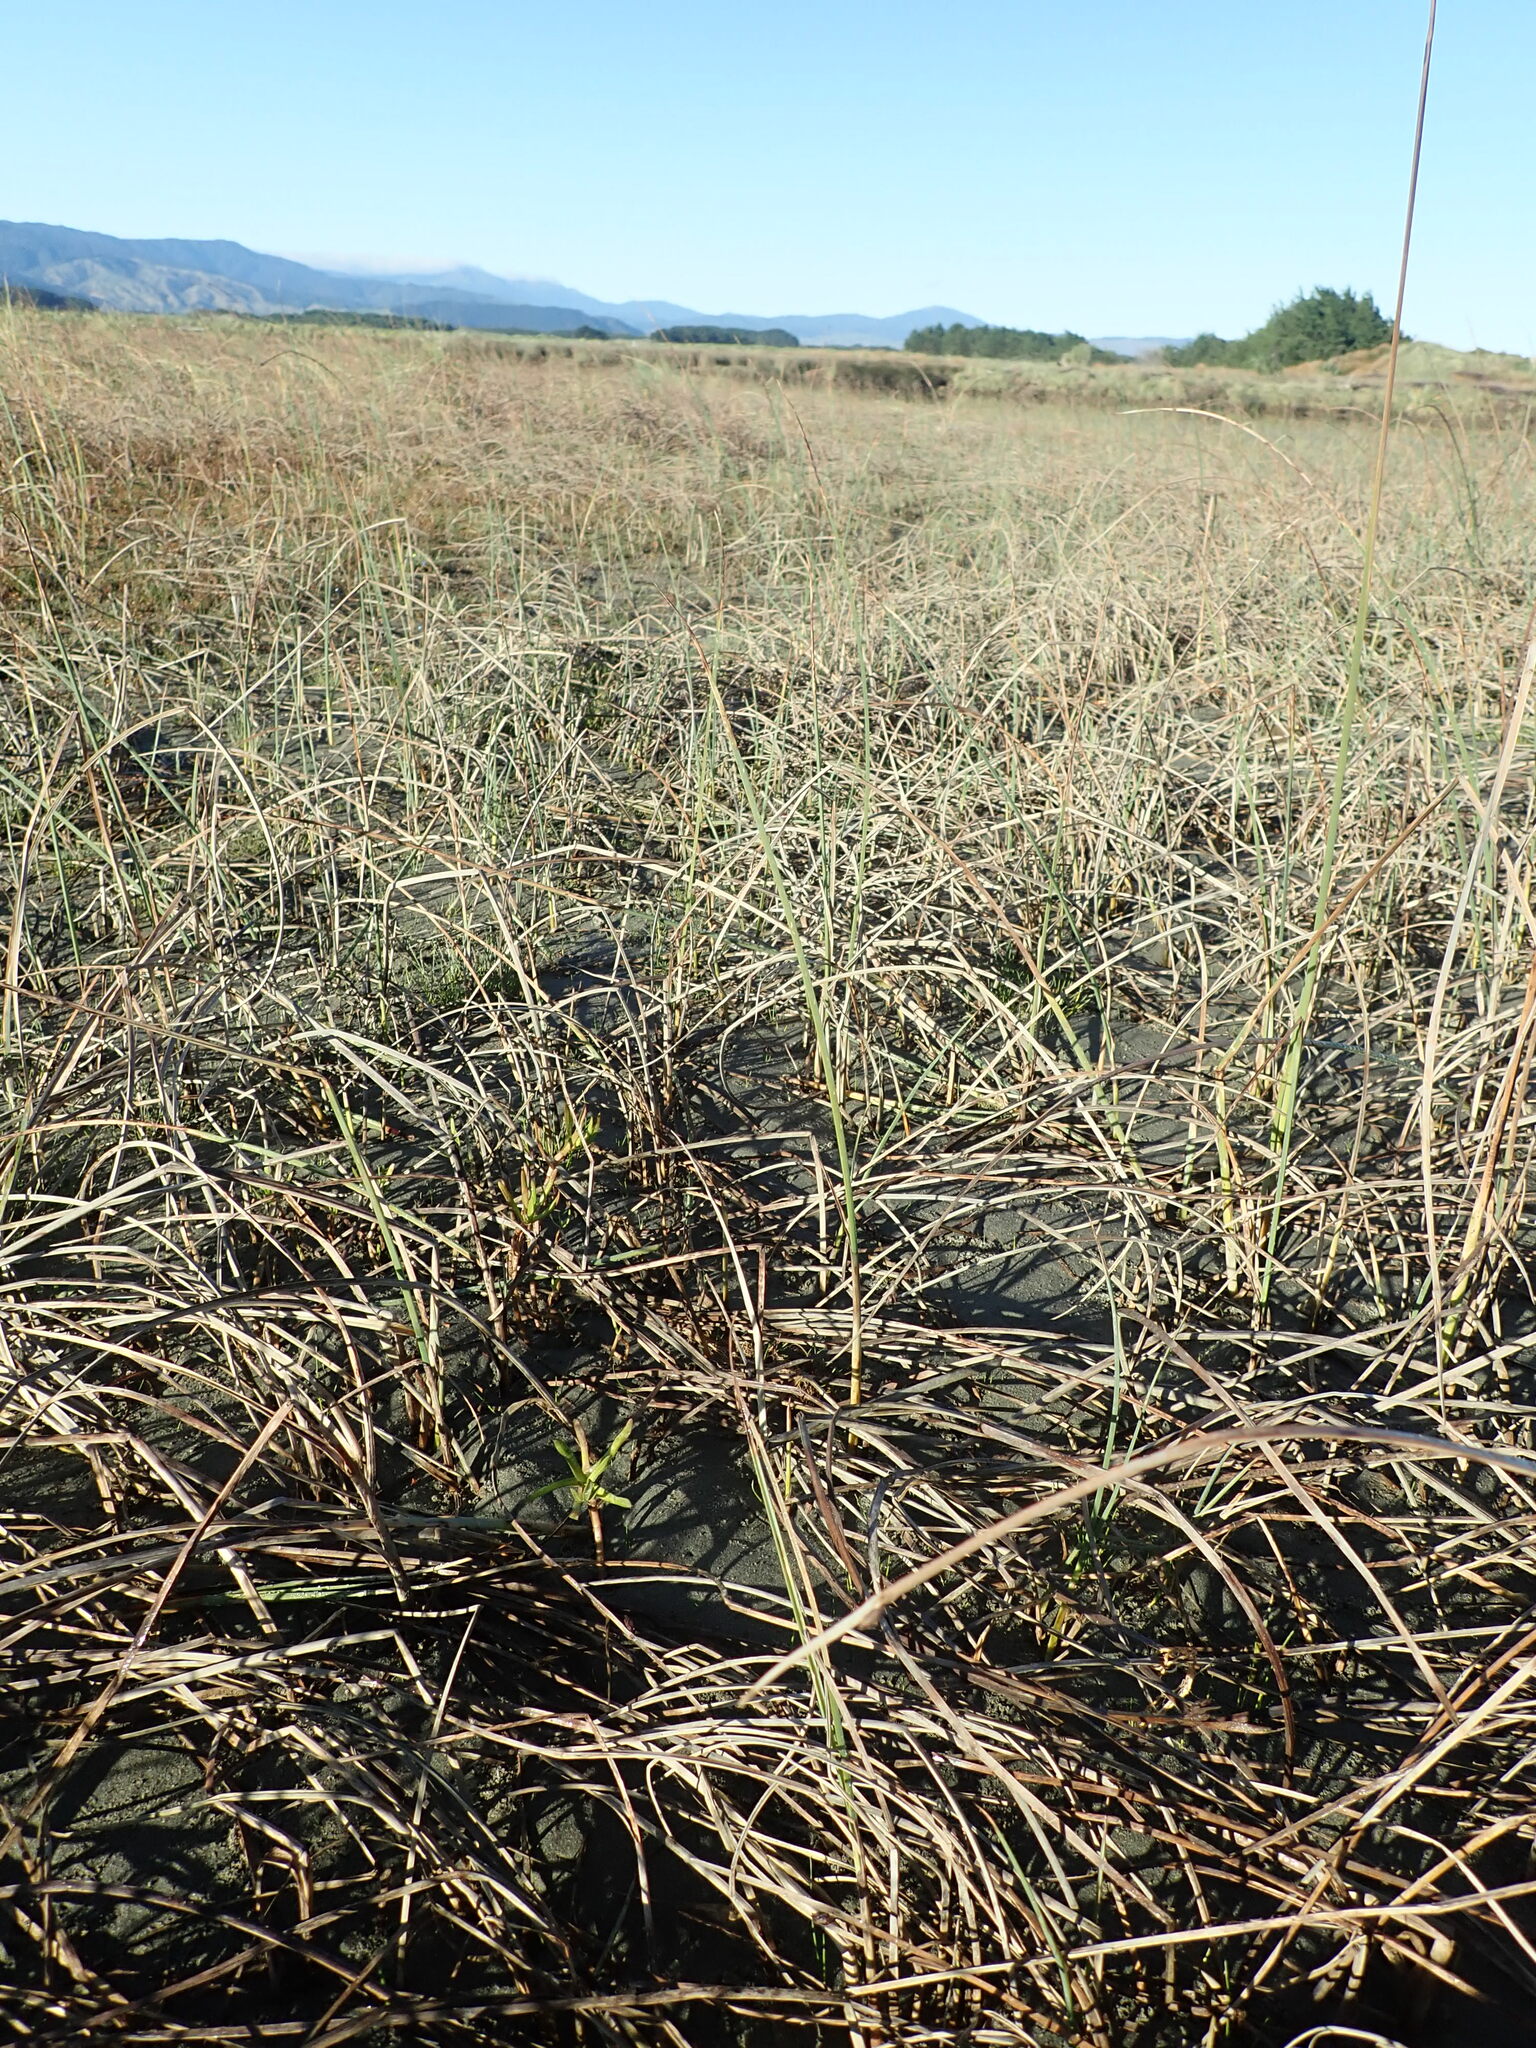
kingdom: Plantae
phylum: Tracheophyta
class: Magnoliopsida
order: Asterales
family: Asteraceae
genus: Cotula
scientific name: Cotula coronopifolia
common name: Buttonweed
